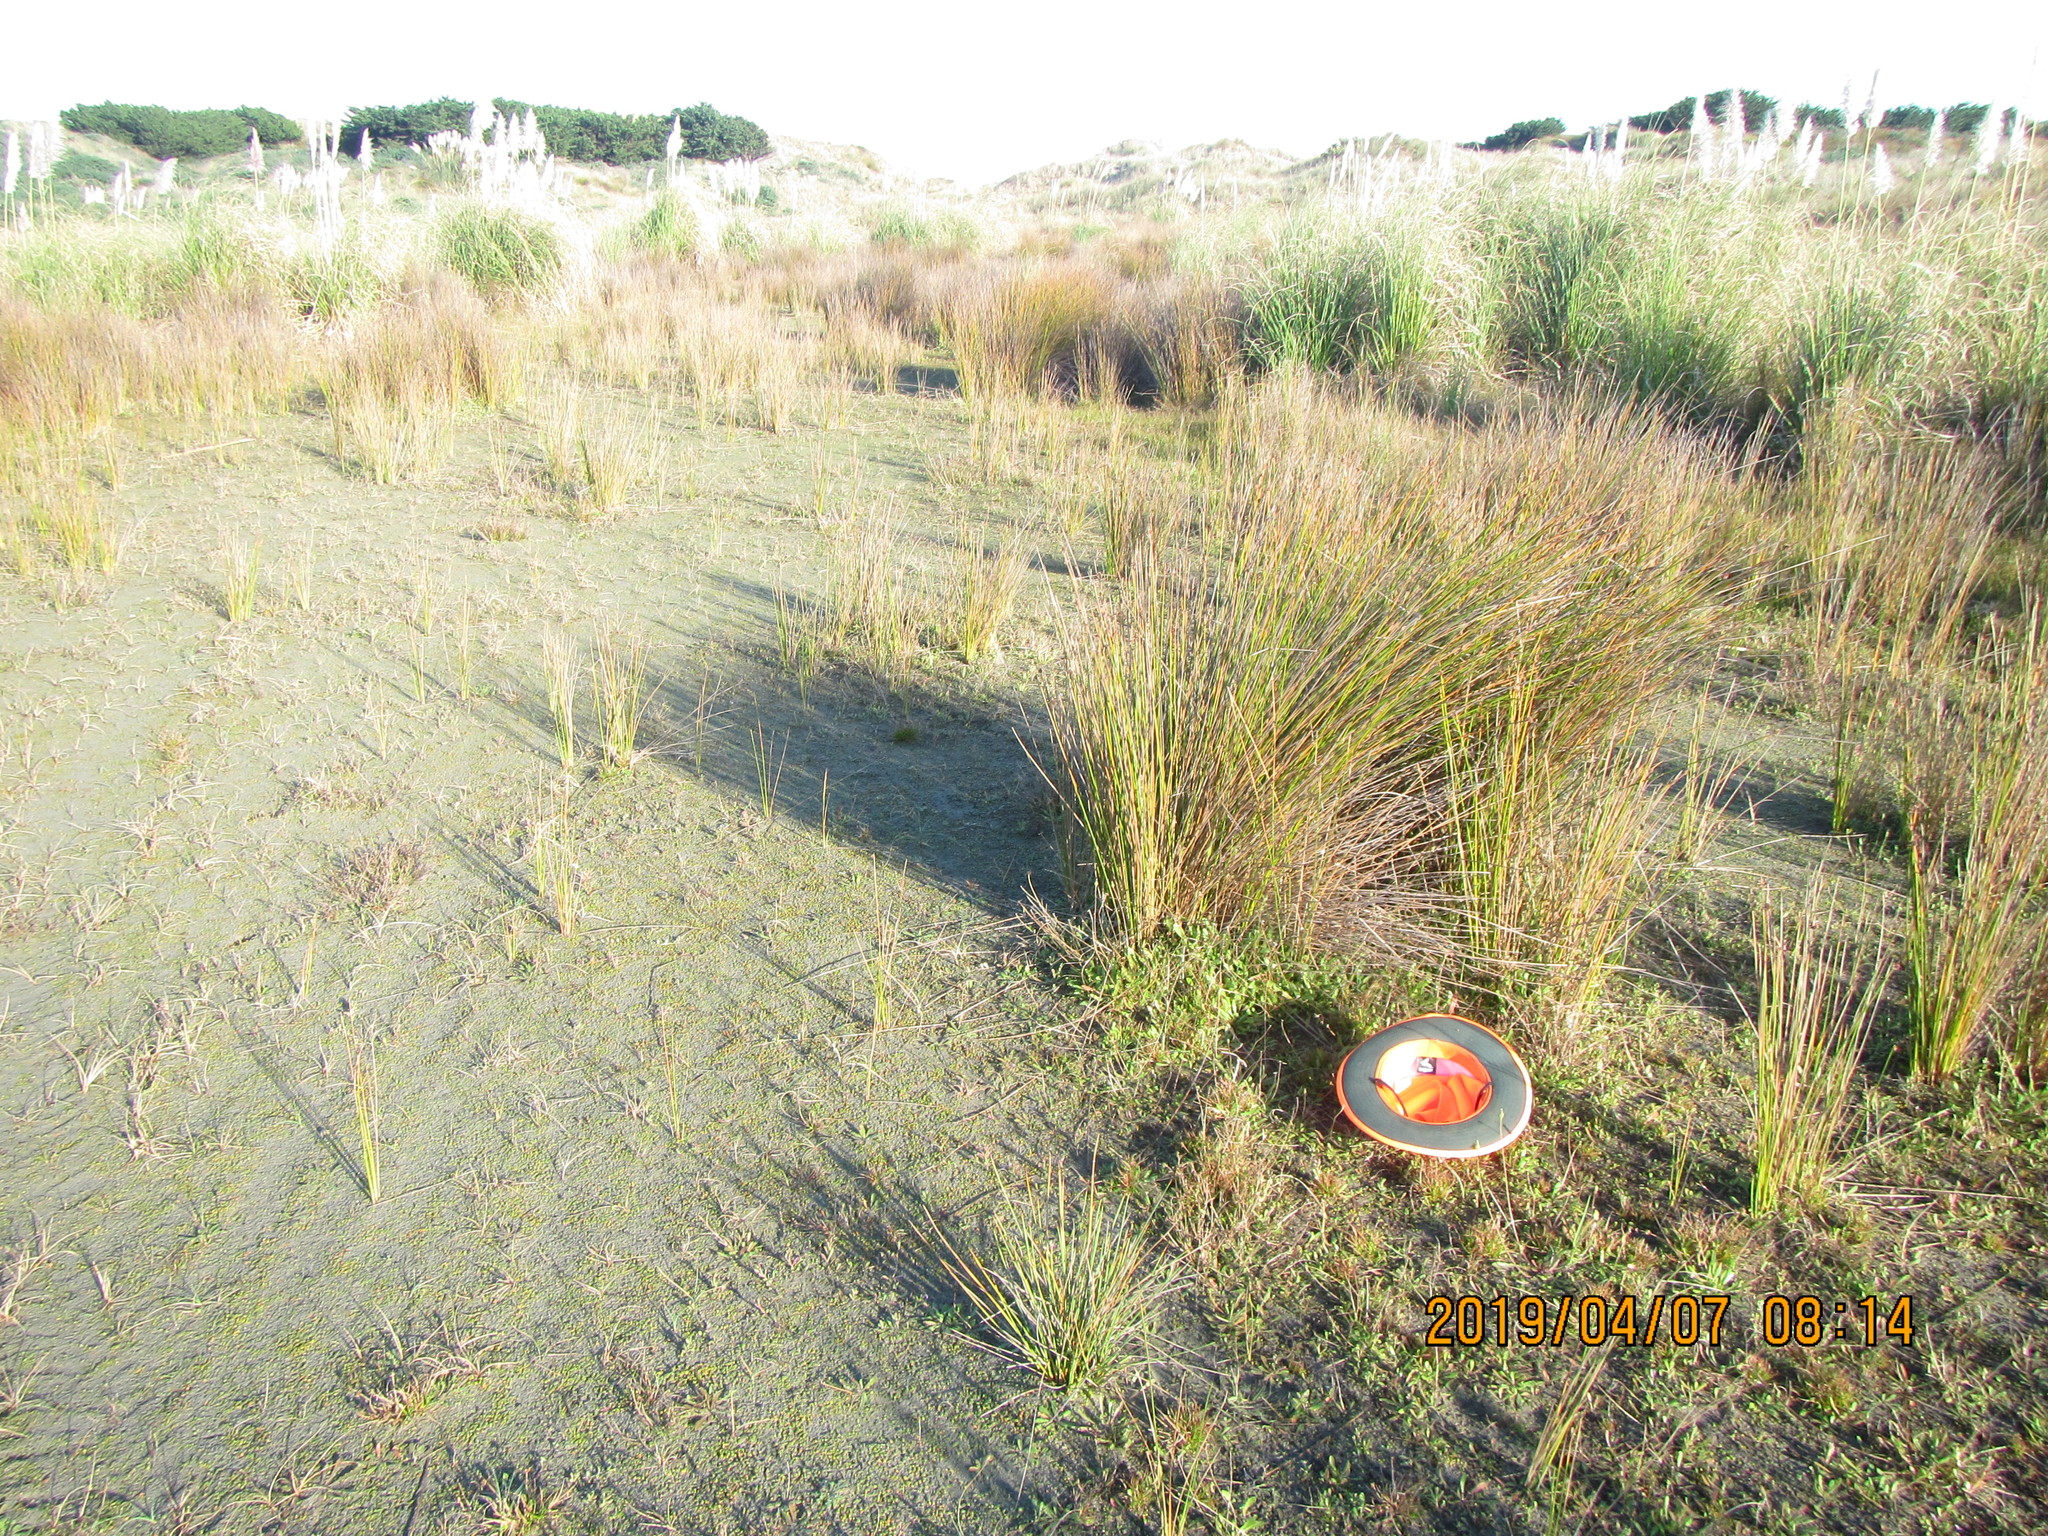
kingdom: Plantae
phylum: Tracheophyta
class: Liliopsida
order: Poales
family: Juncaceae
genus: Juncus
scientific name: Juncus bufonius
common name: Toad rush
